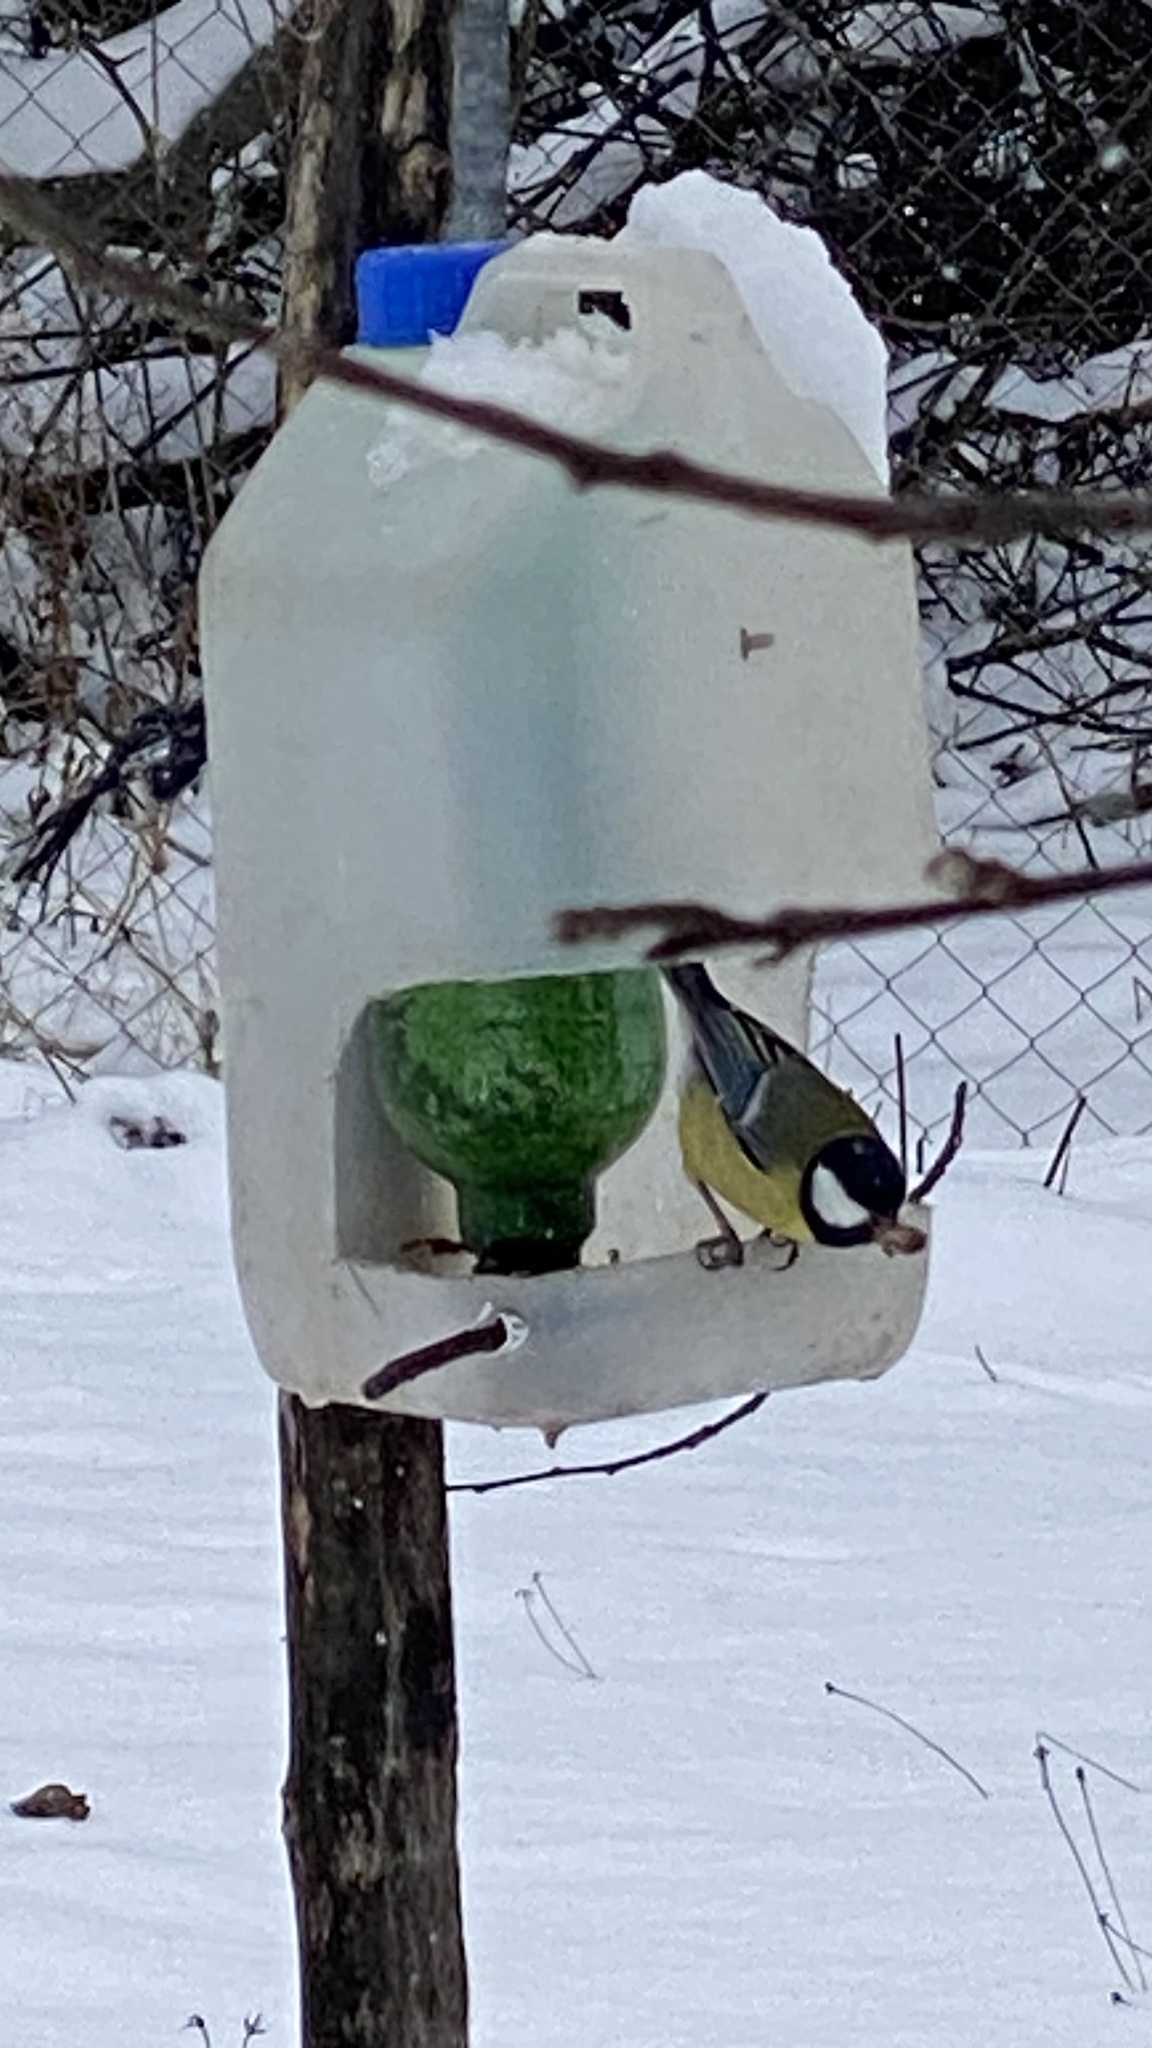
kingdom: Animalia
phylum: Chordata
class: Aves
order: Passeriformes
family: Paridae
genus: Parus
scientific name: Parus major
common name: Great tit
